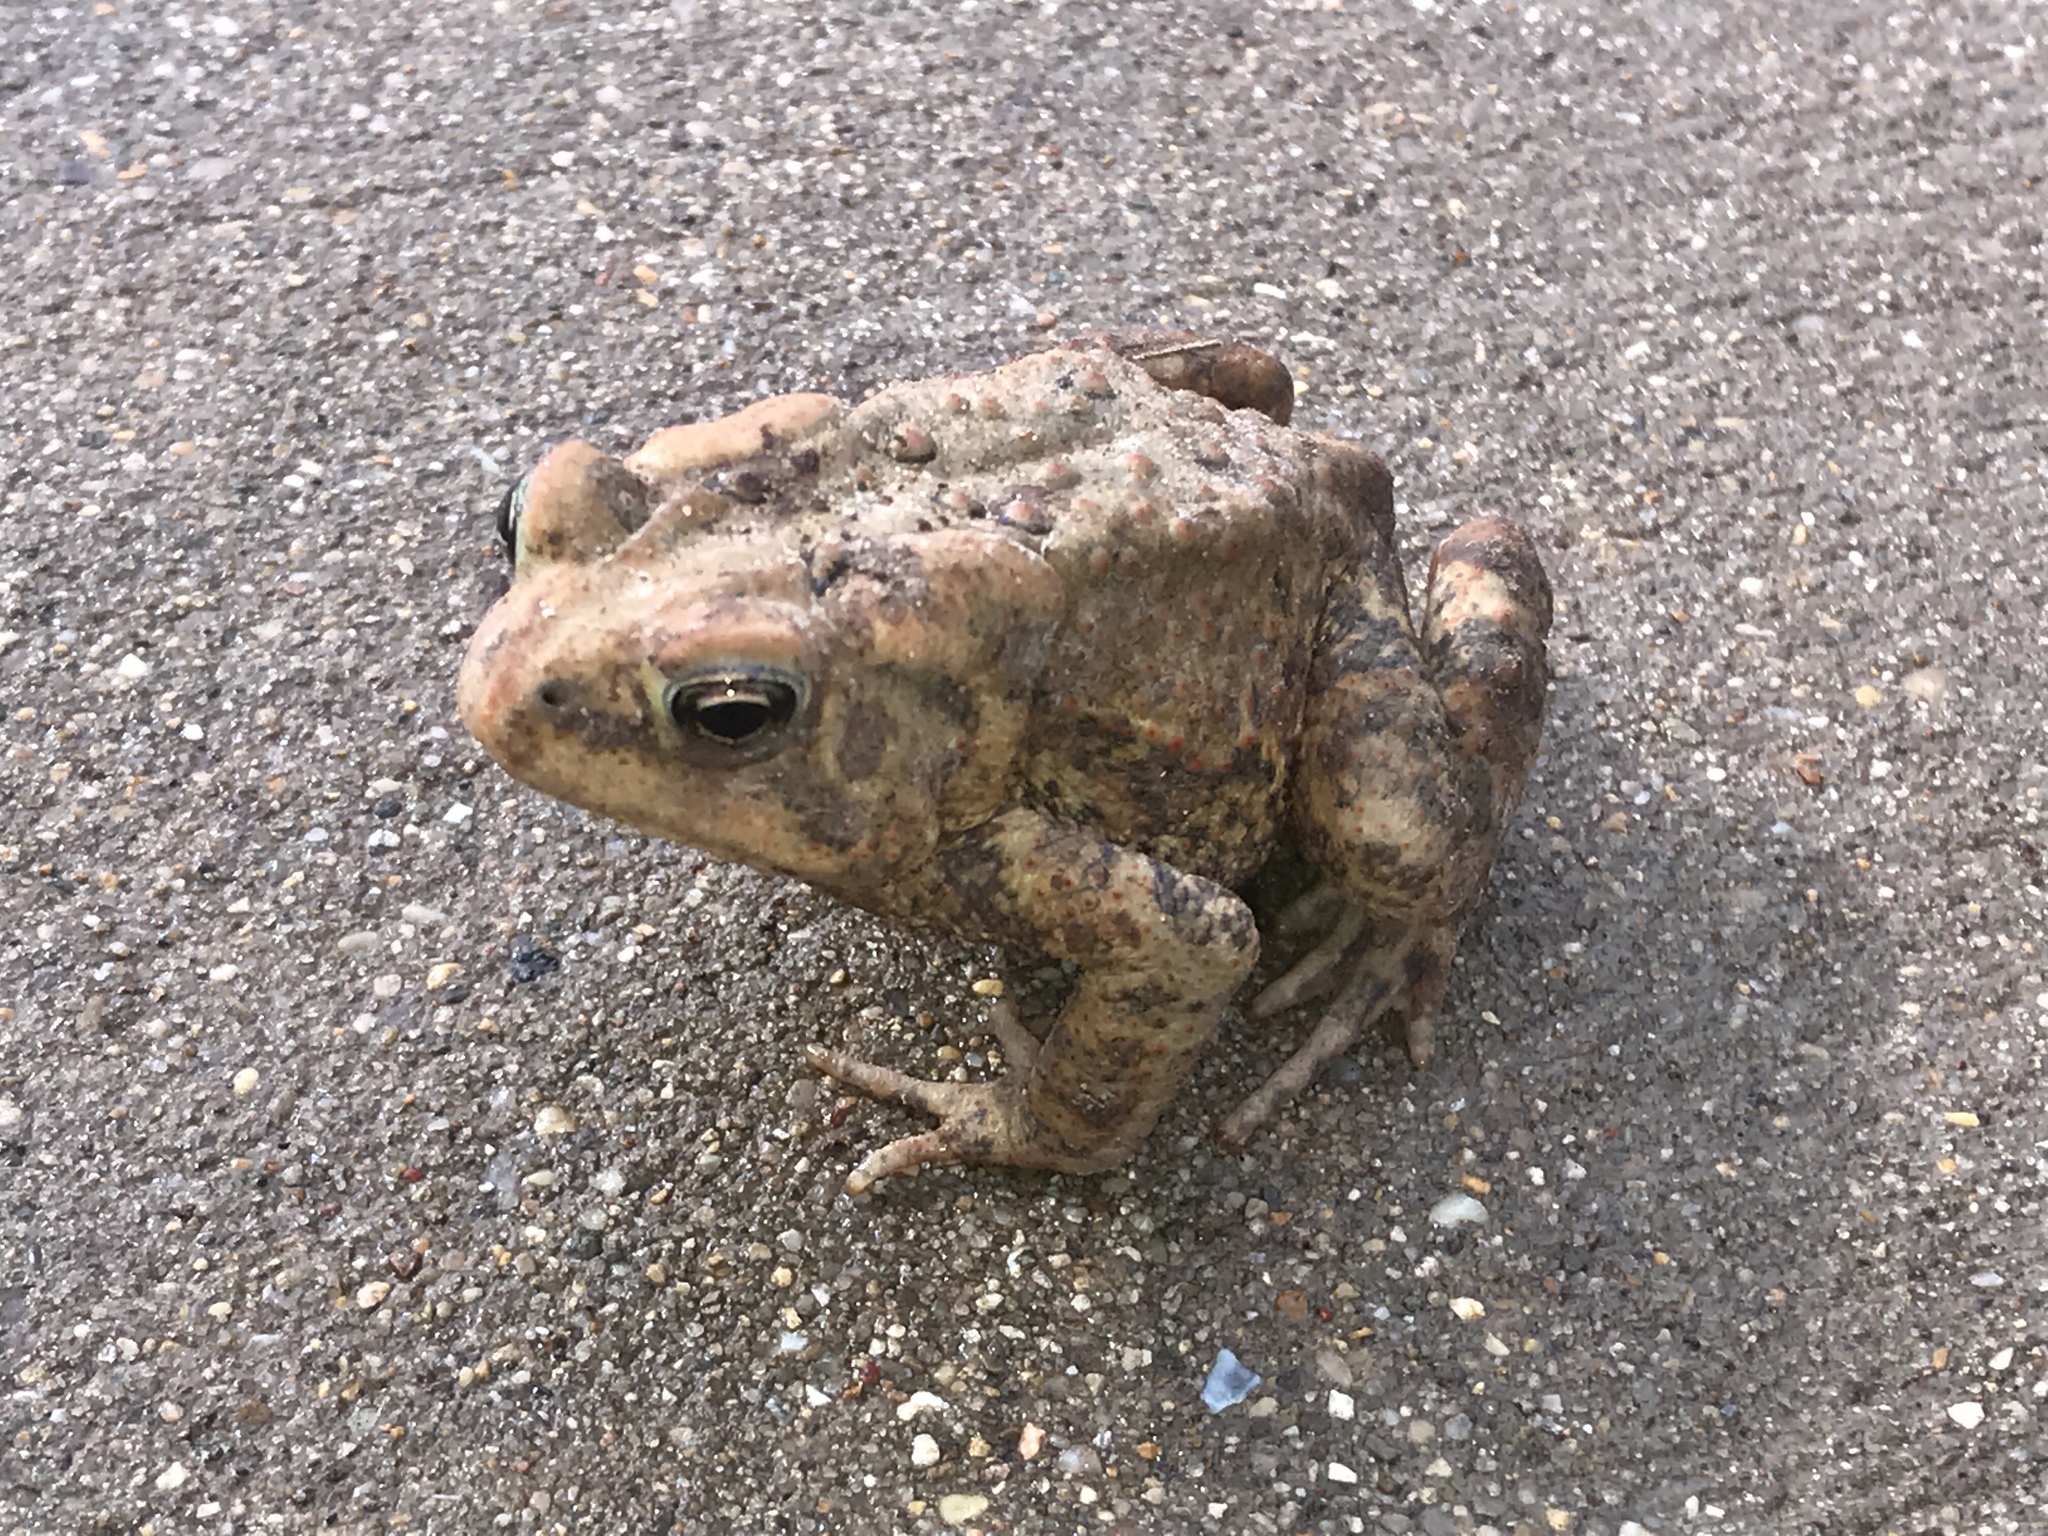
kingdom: Animalia
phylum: Chordata
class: Amphibia
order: Anura
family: Bufonidae
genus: Anaxyrus
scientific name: Anaxyrus americanus
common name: American toad
